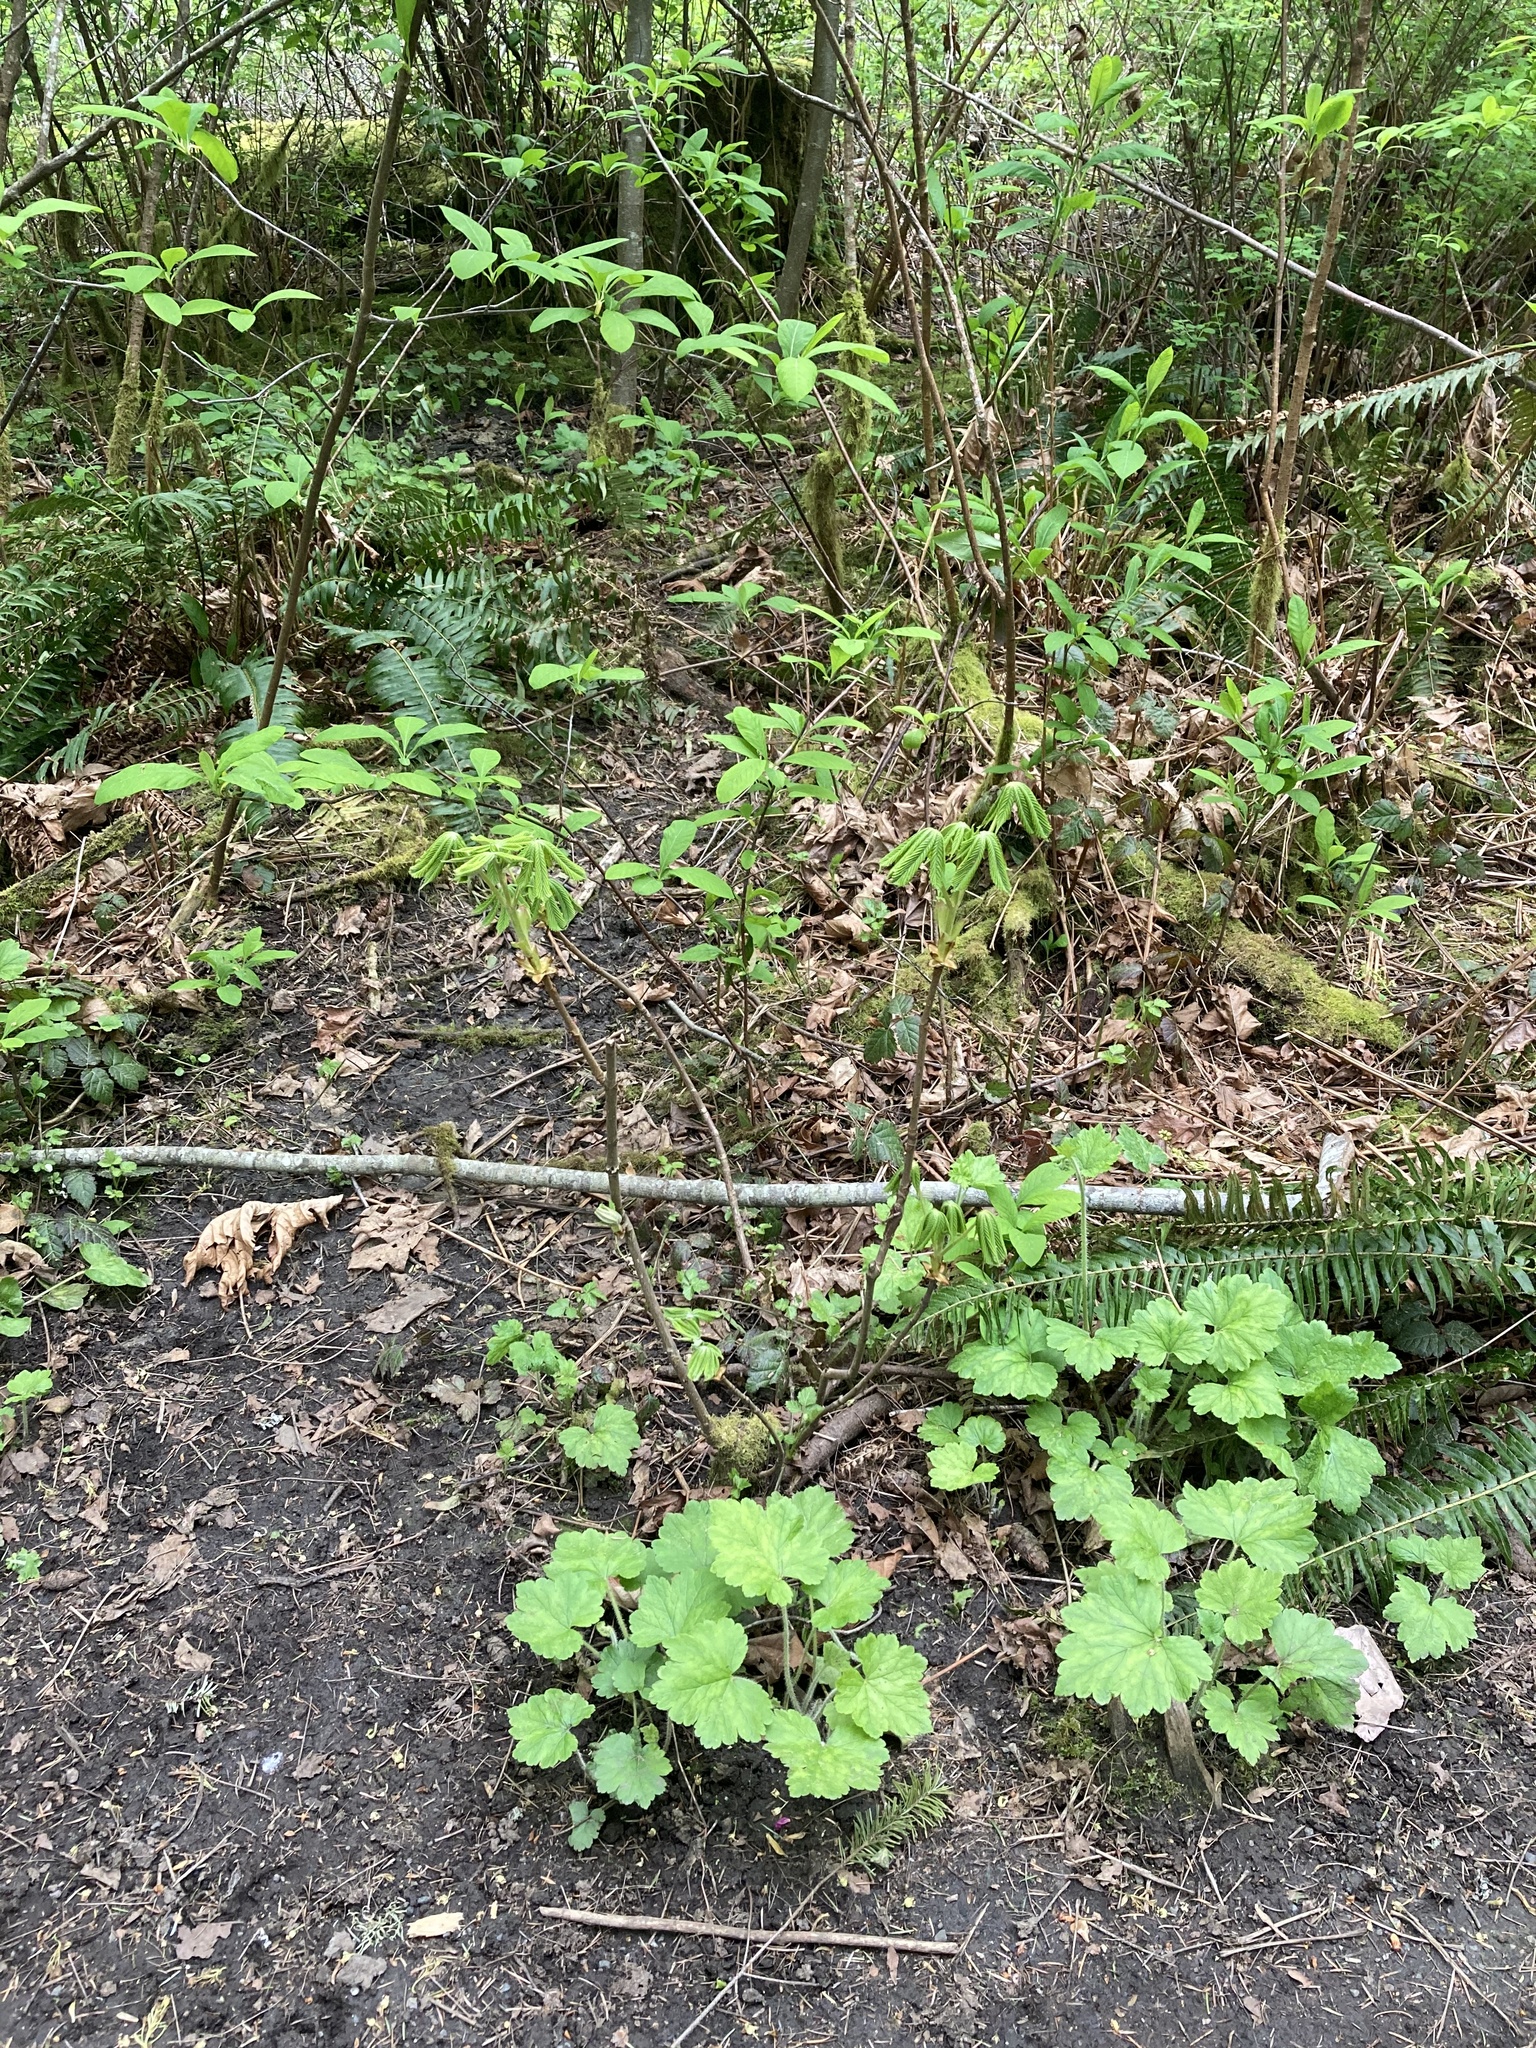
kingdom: Plantae
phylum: Tracheophyta
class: Magnoliopsida
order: Sapindales
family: Sapindaceae
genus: Aesculus
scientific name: Aesculus hippocastanum
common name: Horse-chestnut
